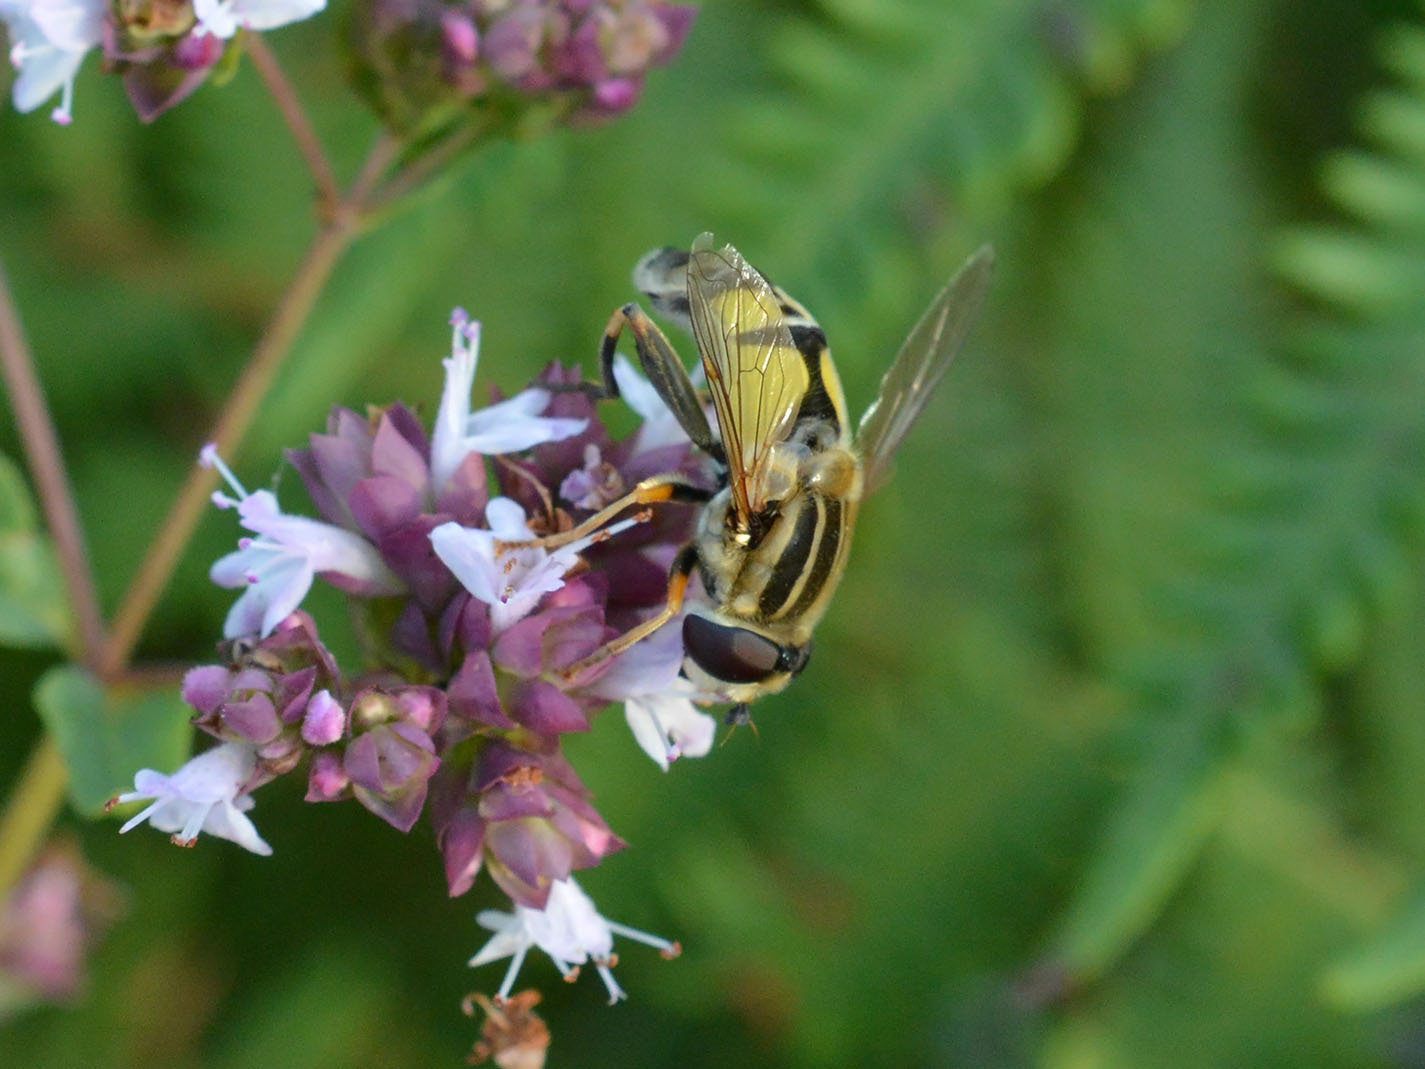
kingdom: Animalia
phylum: Arthropoda
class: Insecta
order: Diptera
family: Syrphidae
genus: Helophilus
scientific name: Helophilus trivittatus
